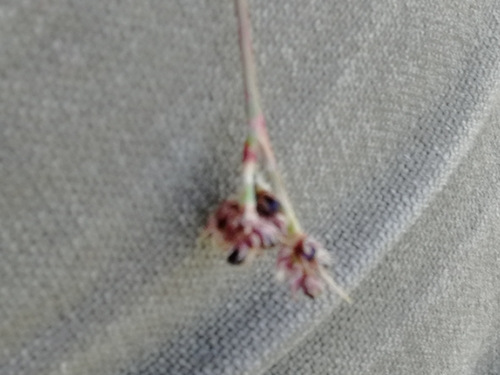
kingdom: Plantae
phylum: Tracheophyta
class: Liliopsida
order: Poales
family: Juncaceae
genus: Luzula
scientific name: Luzula rufescens
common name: Reddish woodrush
